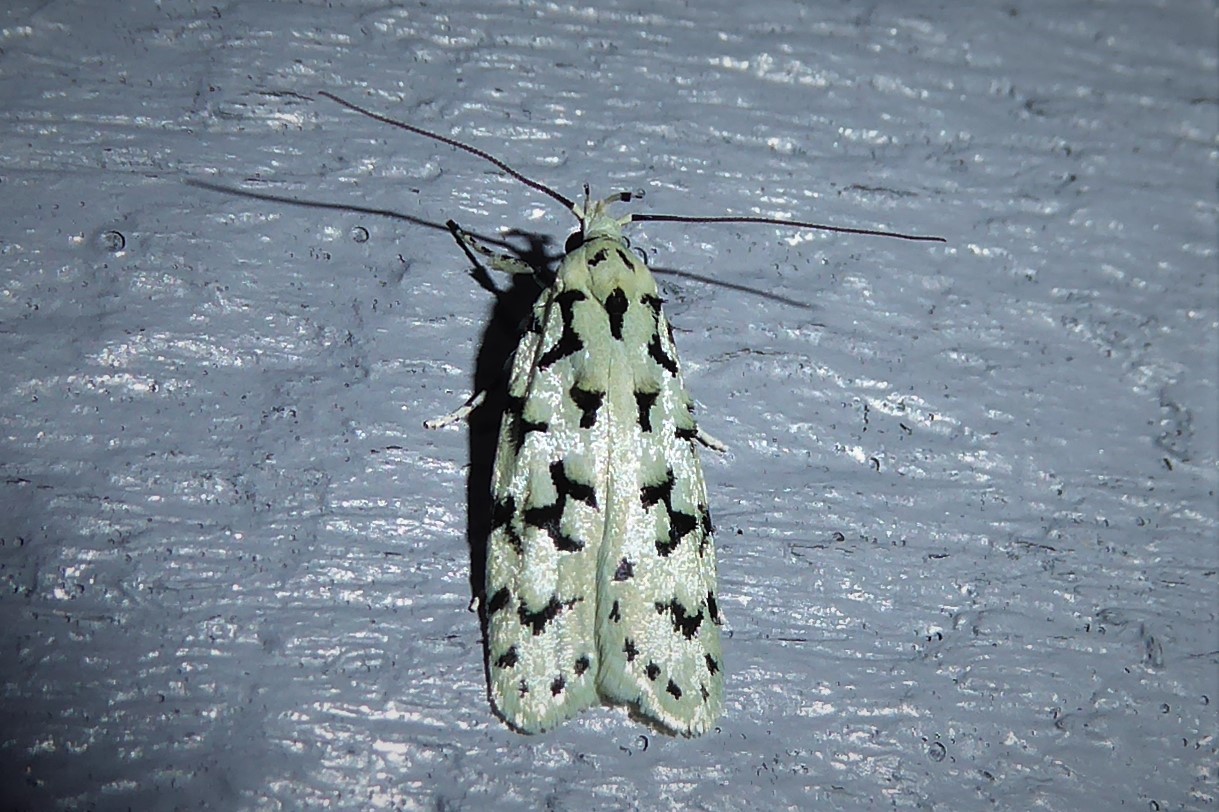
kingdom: Animalia
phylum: Arthropoda
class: Insecta
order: Lepidoptera
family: Oecophoridae
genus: Izatha
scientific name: Izatha huttoni
